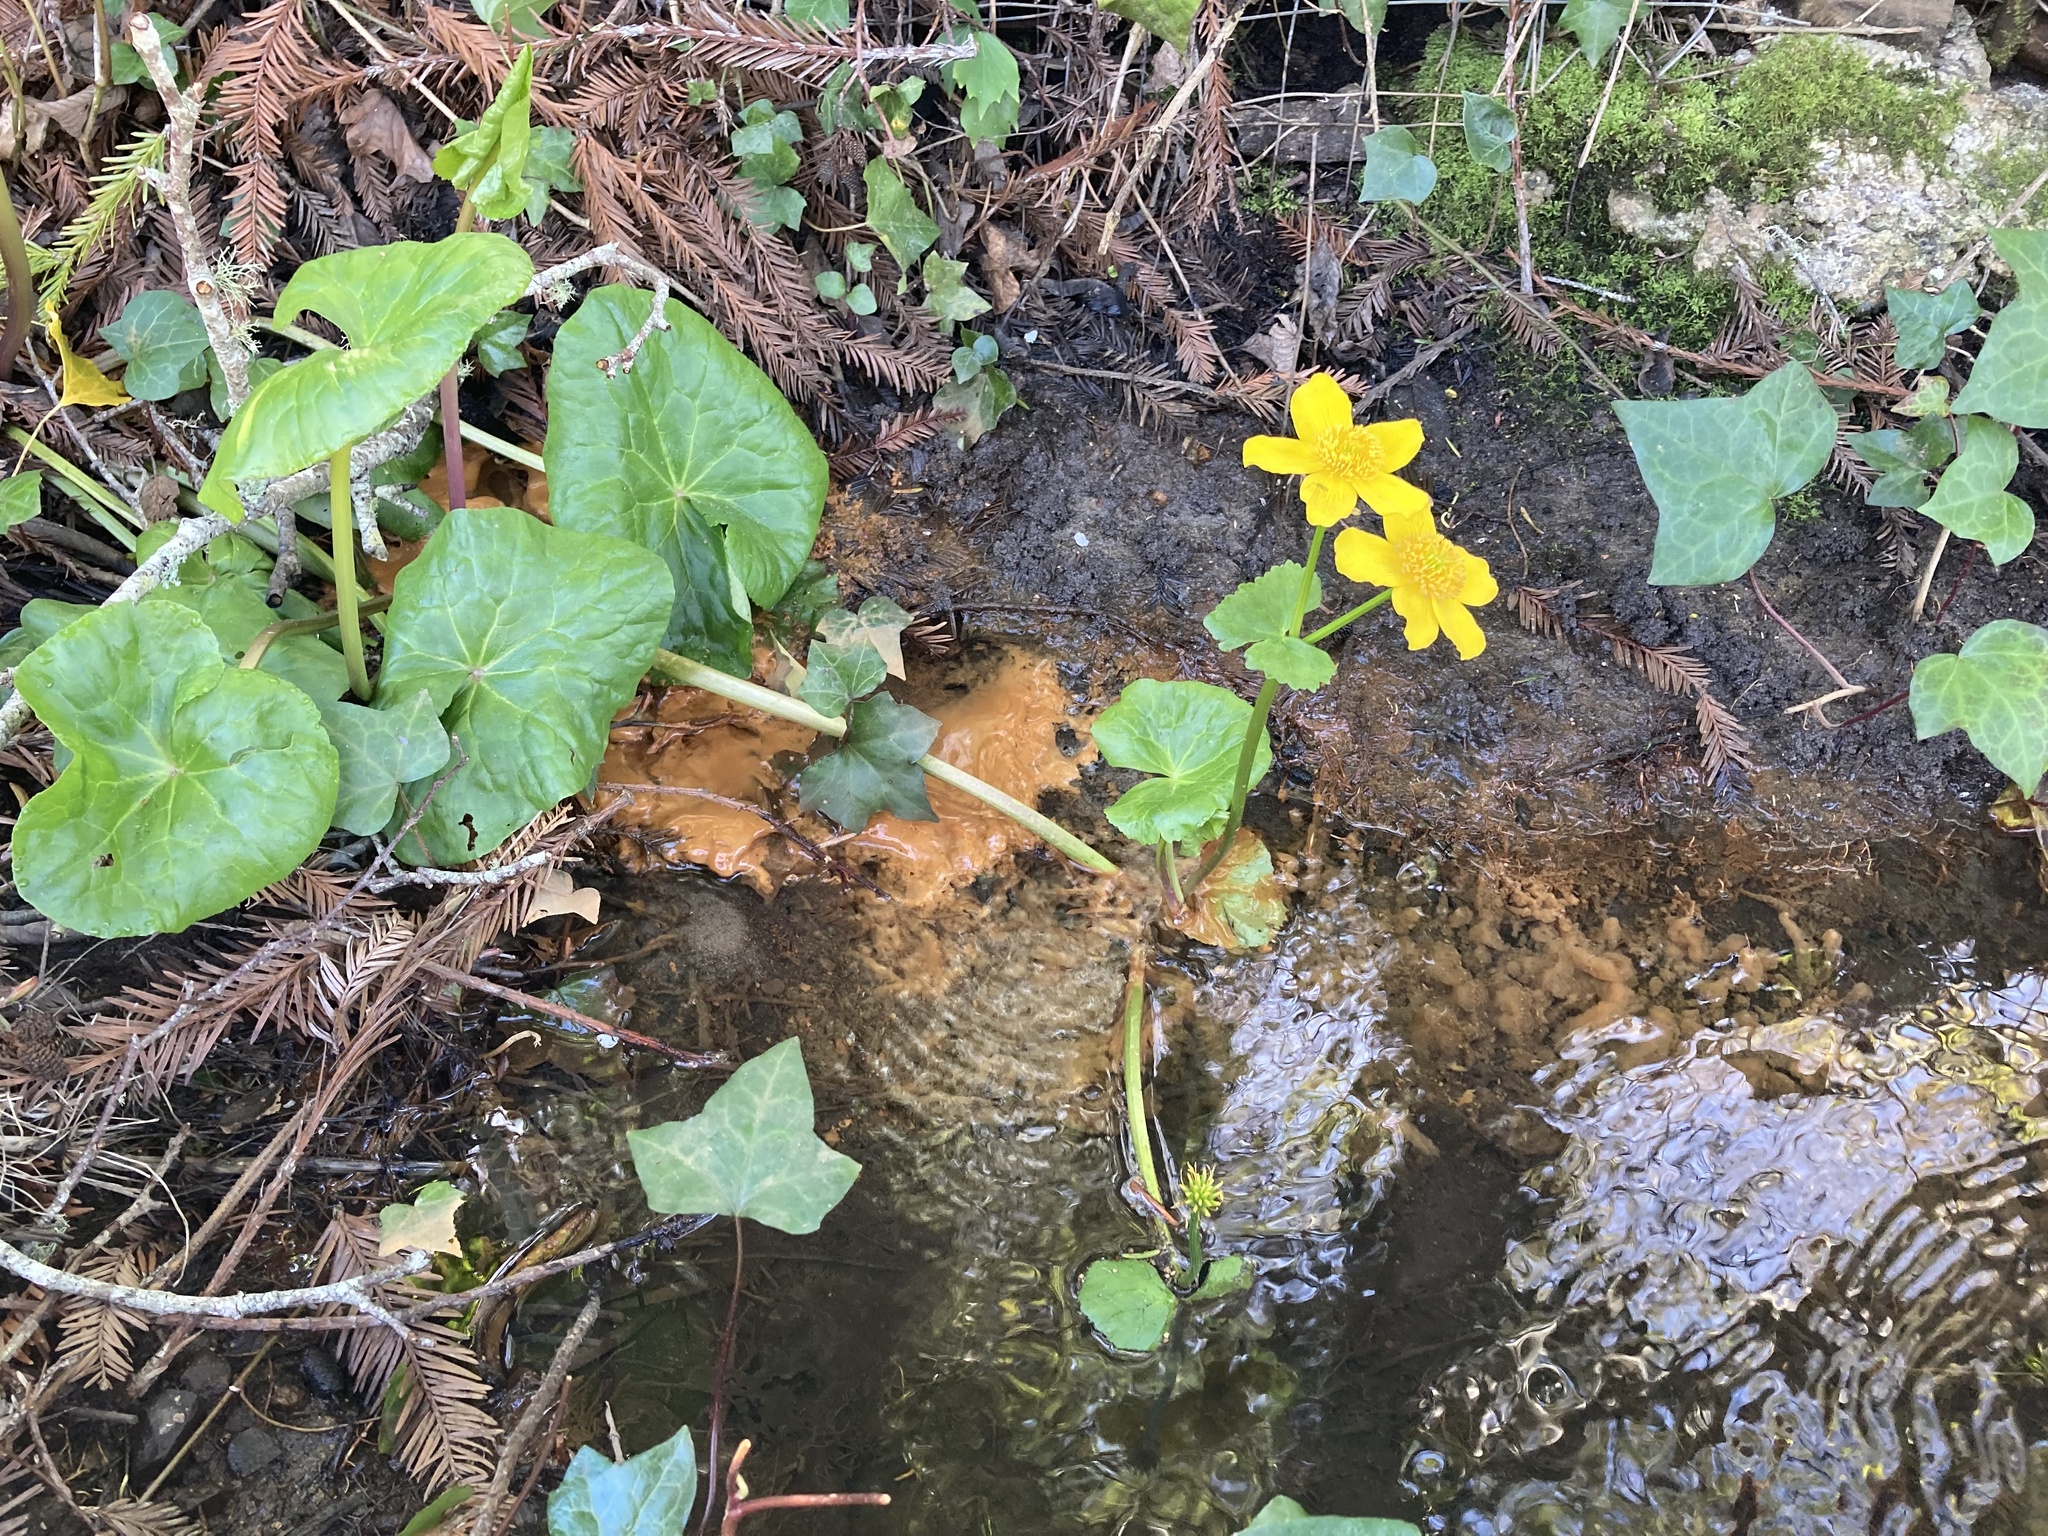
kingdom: Plantae
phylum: Tracheophyta
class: Magnoliopsida
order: Ranunculales
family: Ranunculaceae
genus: Caltha
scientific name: Caltha palustris
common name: Marsh marigold
